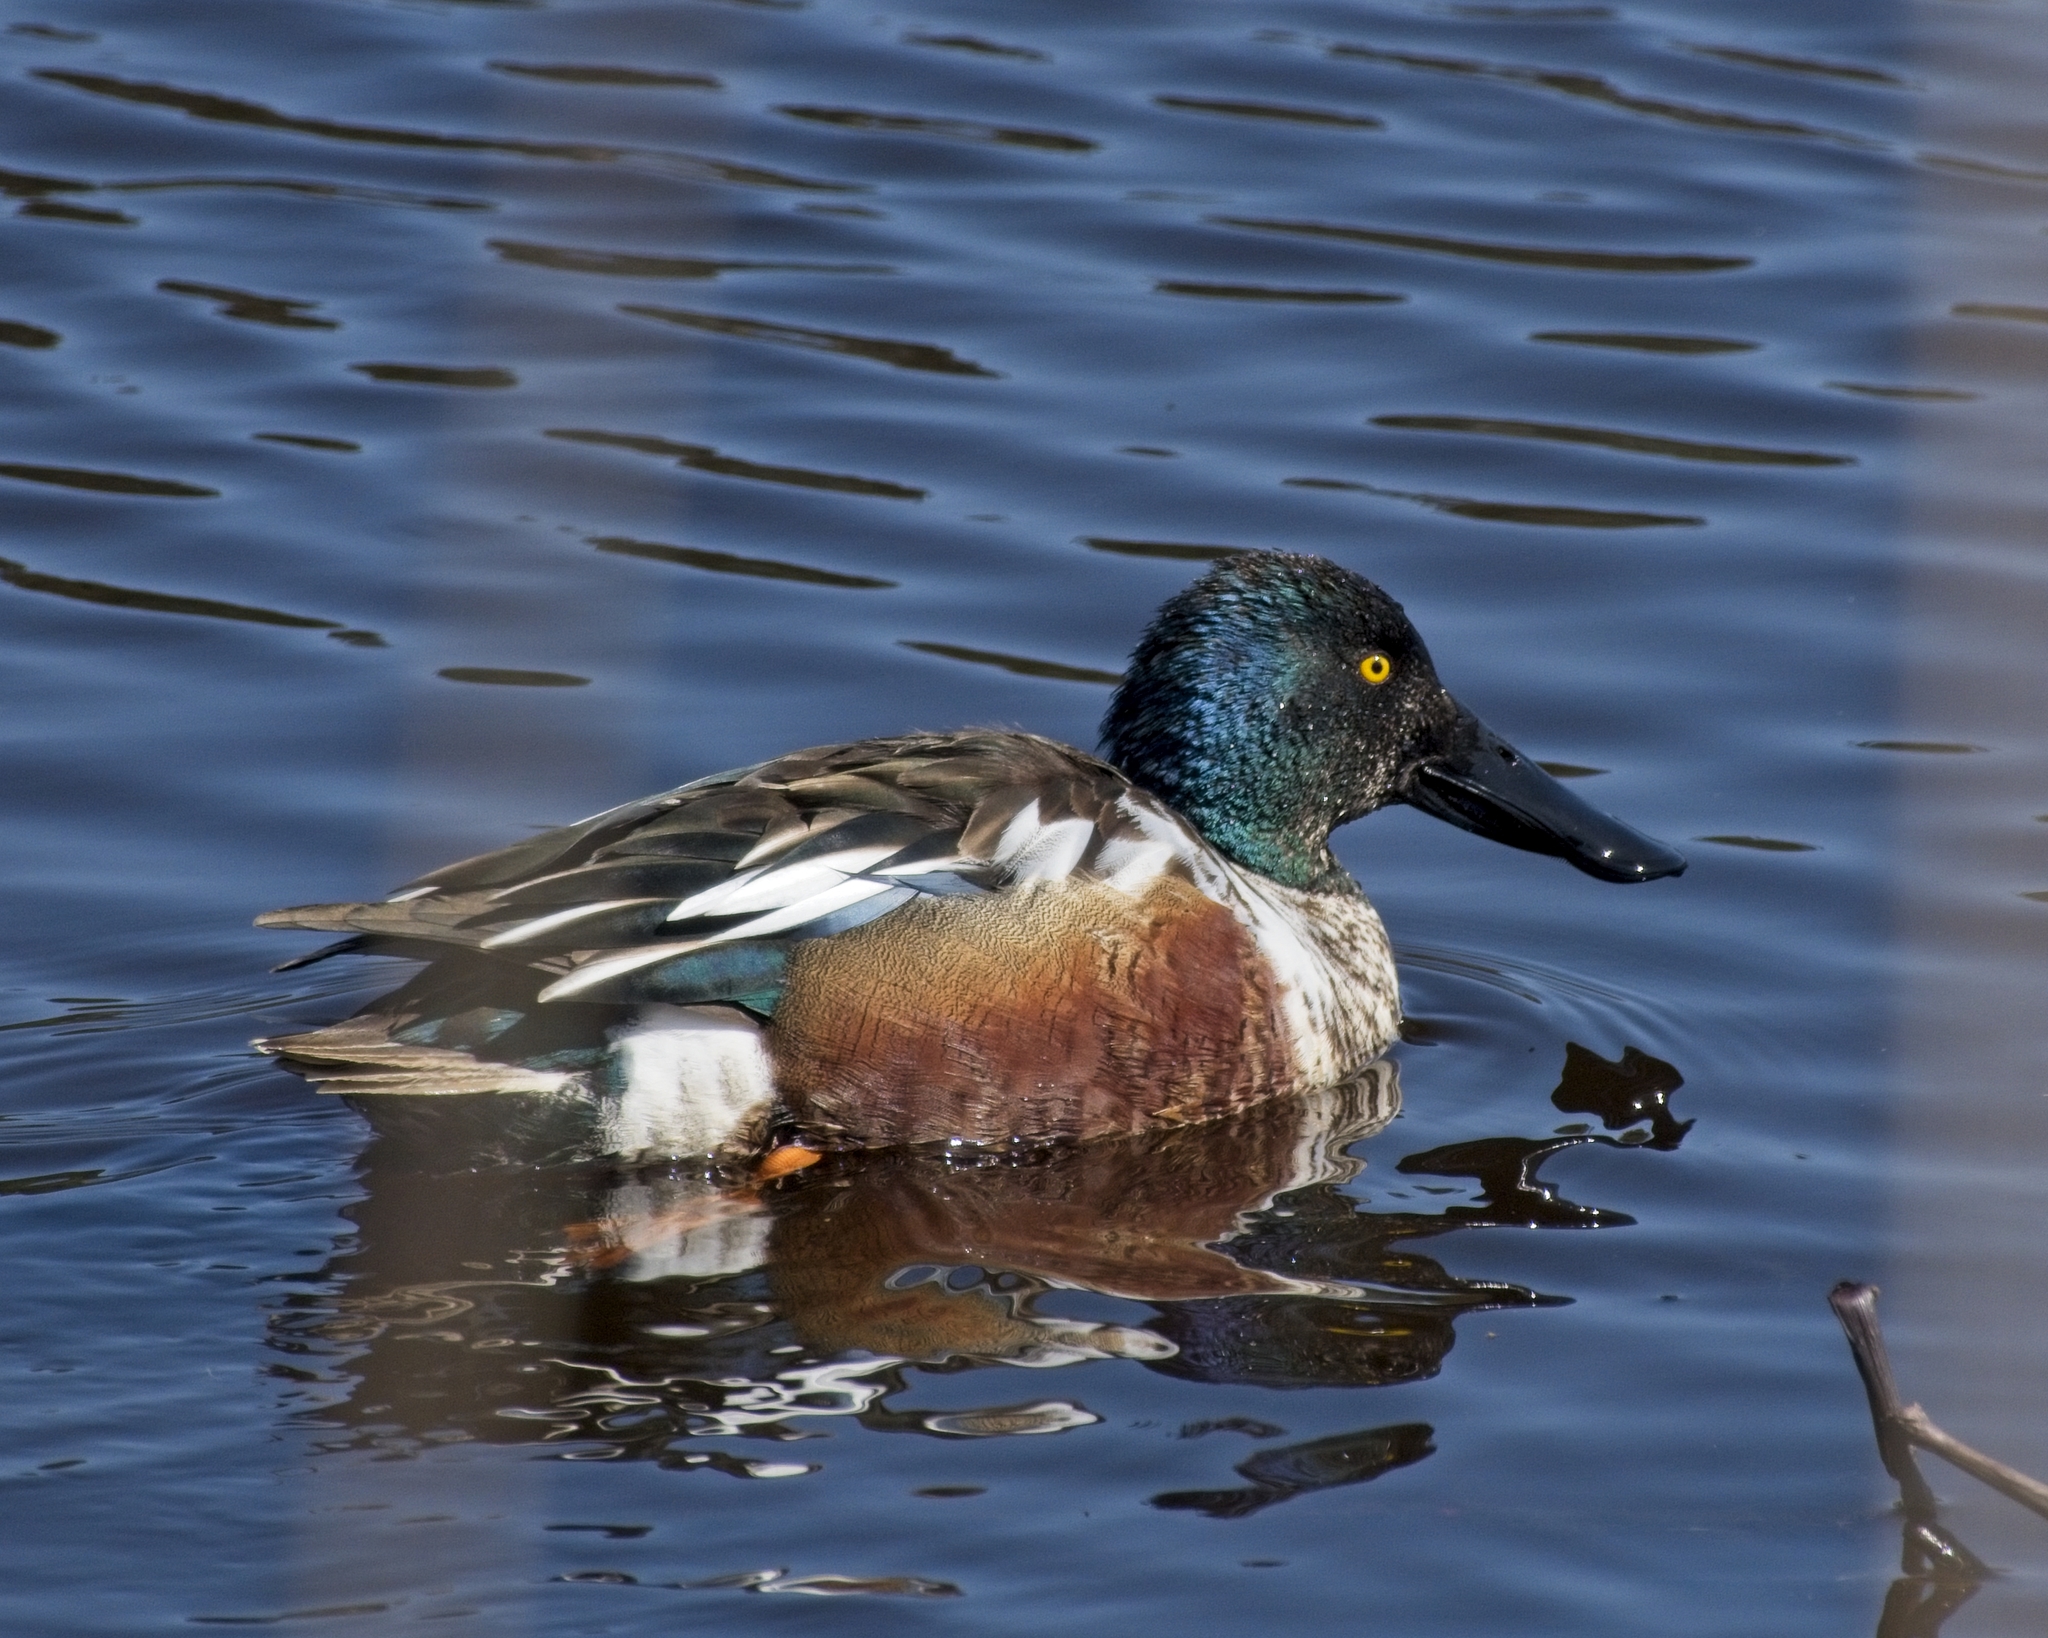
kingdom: Animalia
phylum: Chordata
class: Aves
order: Anseriformes
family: Anatidae
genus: Spatula
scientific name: Spatula clypeata
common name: Northern shoveler
